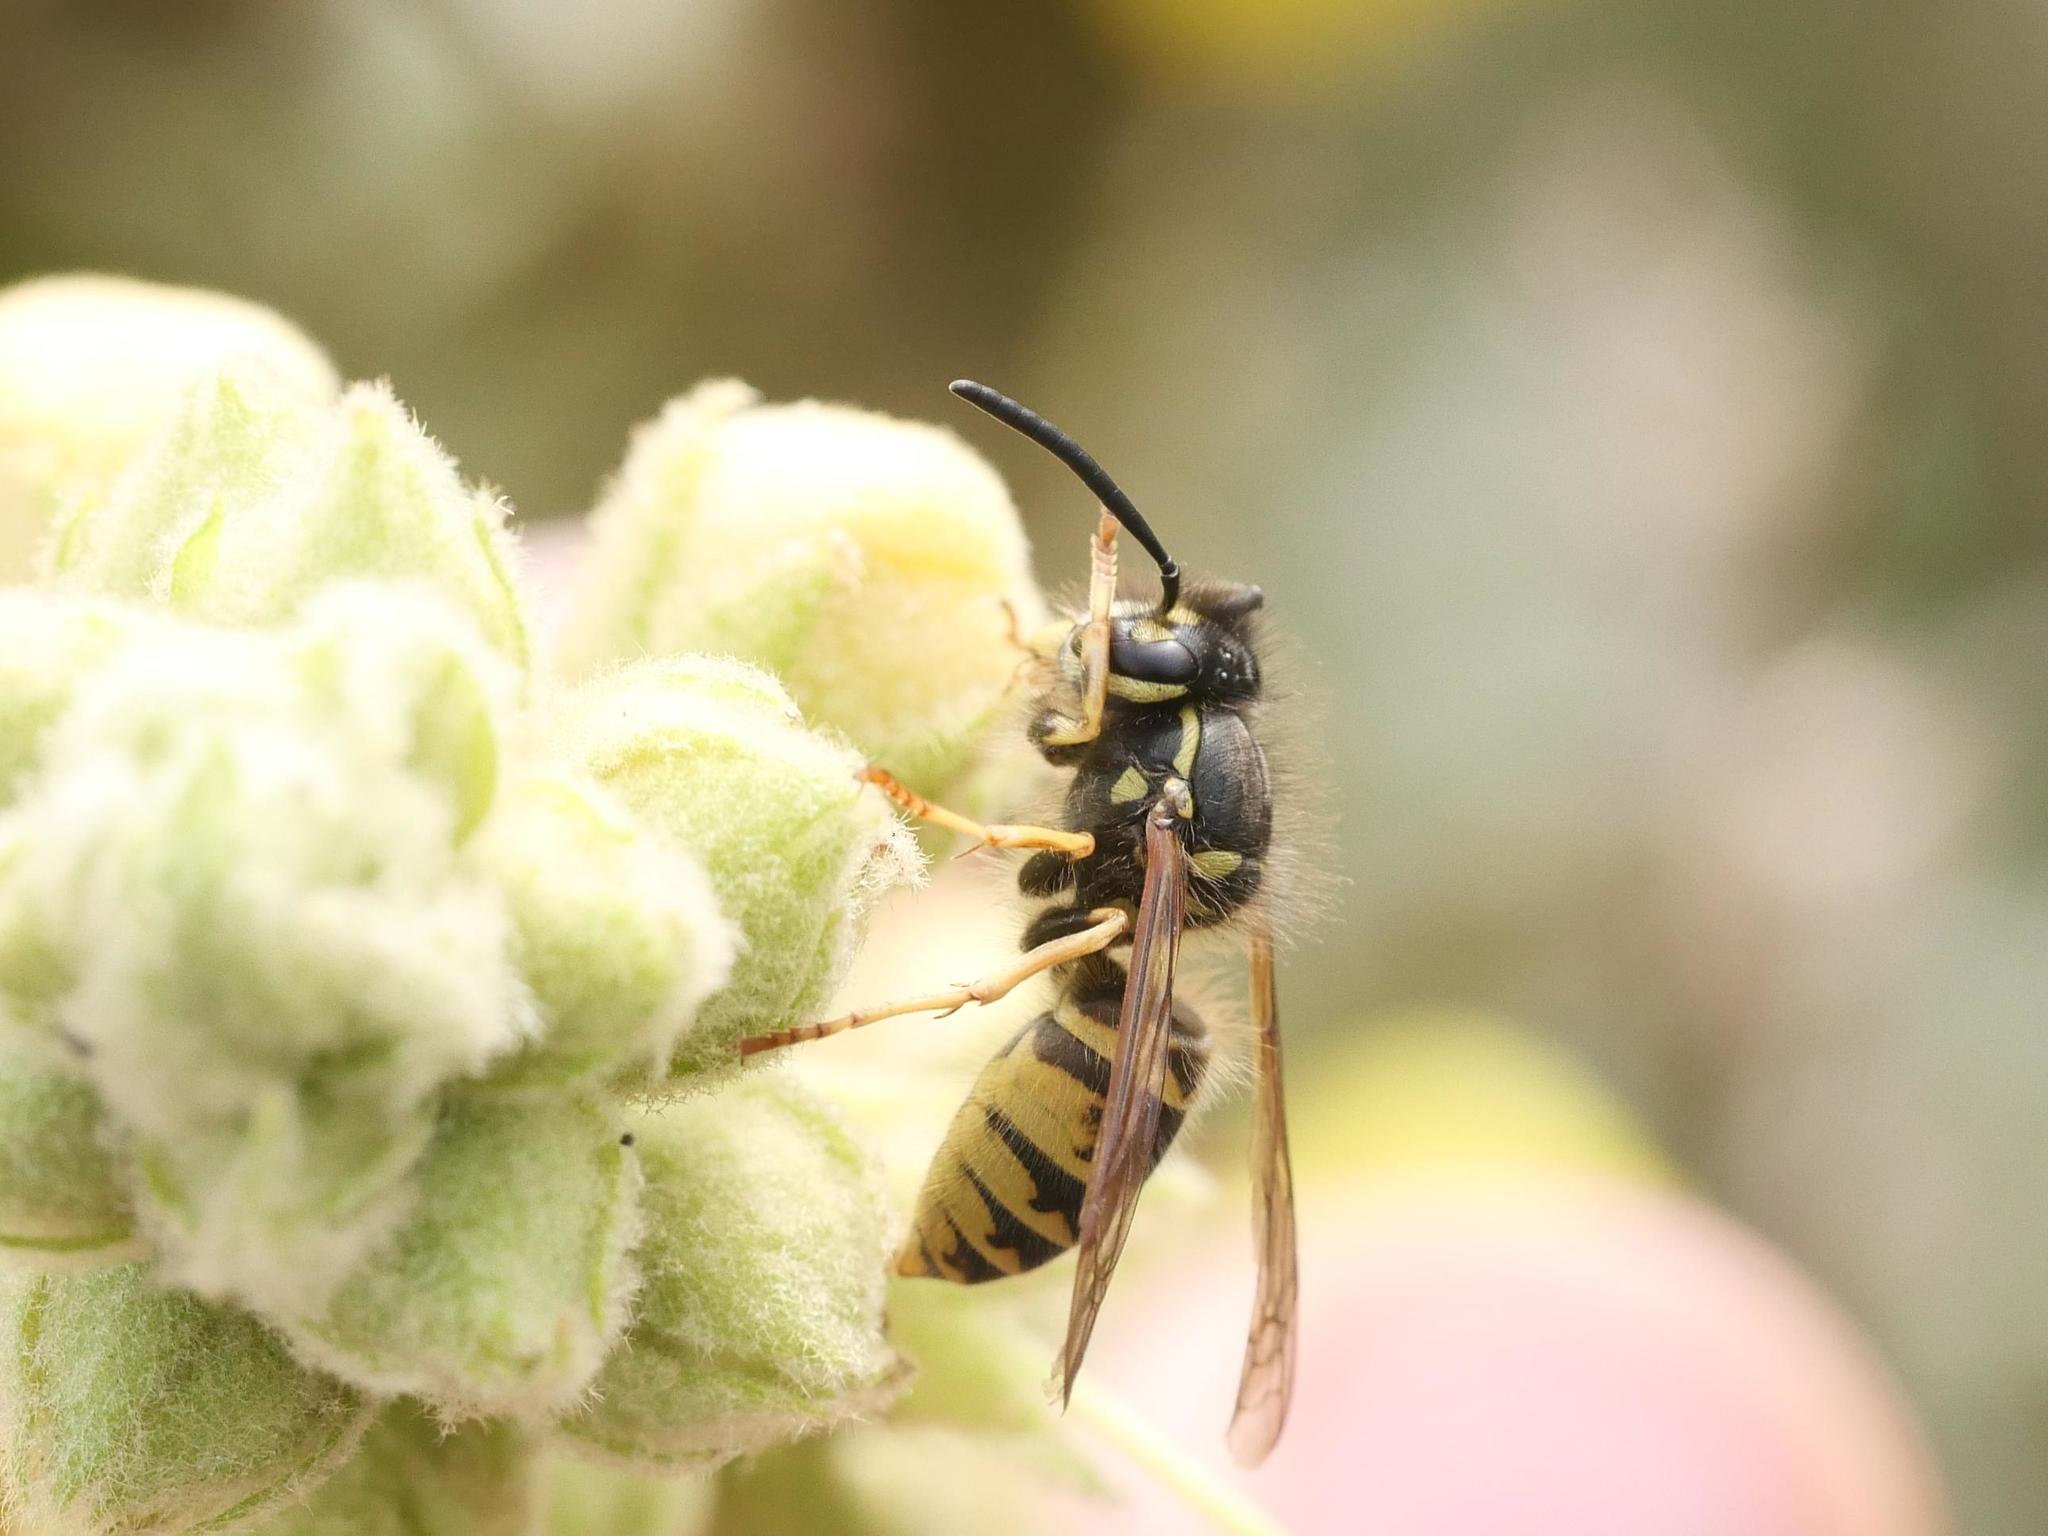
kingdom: Animalia
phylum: Arthropoda
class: Insecta
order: Hymenoptera
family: Vespidae
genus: Vespula
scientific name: Vespula vulgaris
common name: Common wasp
